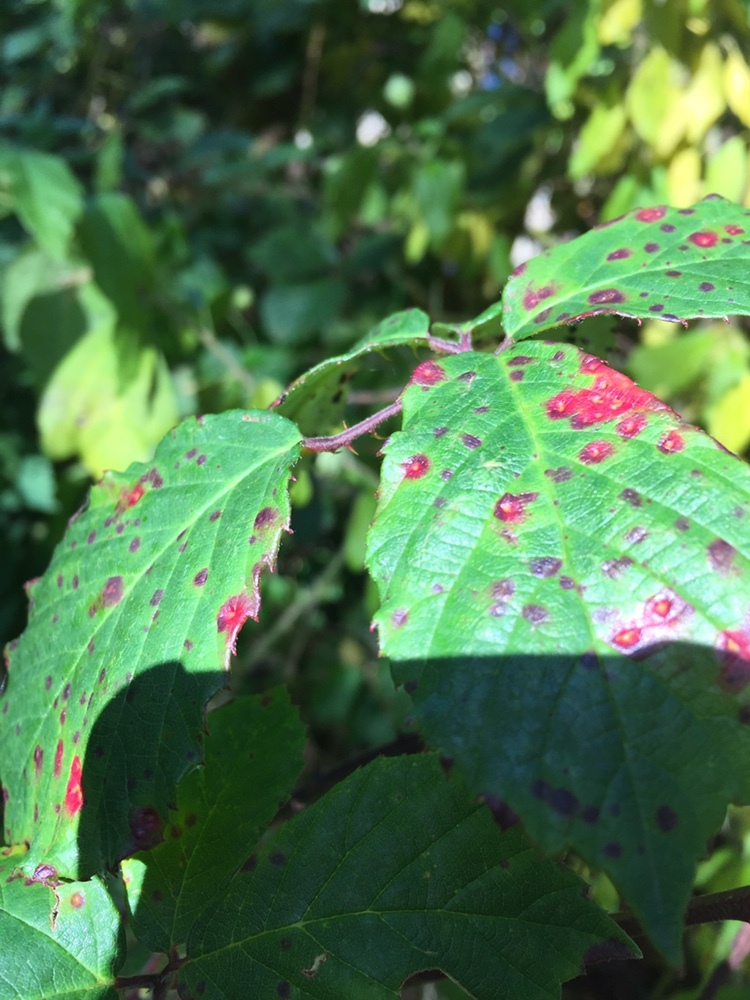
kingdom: Fungi
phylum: Basidiomycota
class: Pucciniomycetes
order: Pucciniales
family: Phragmidiaceae
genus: Phragmidium
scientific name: Phragmidium violaceum
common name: Violet bramble rust
